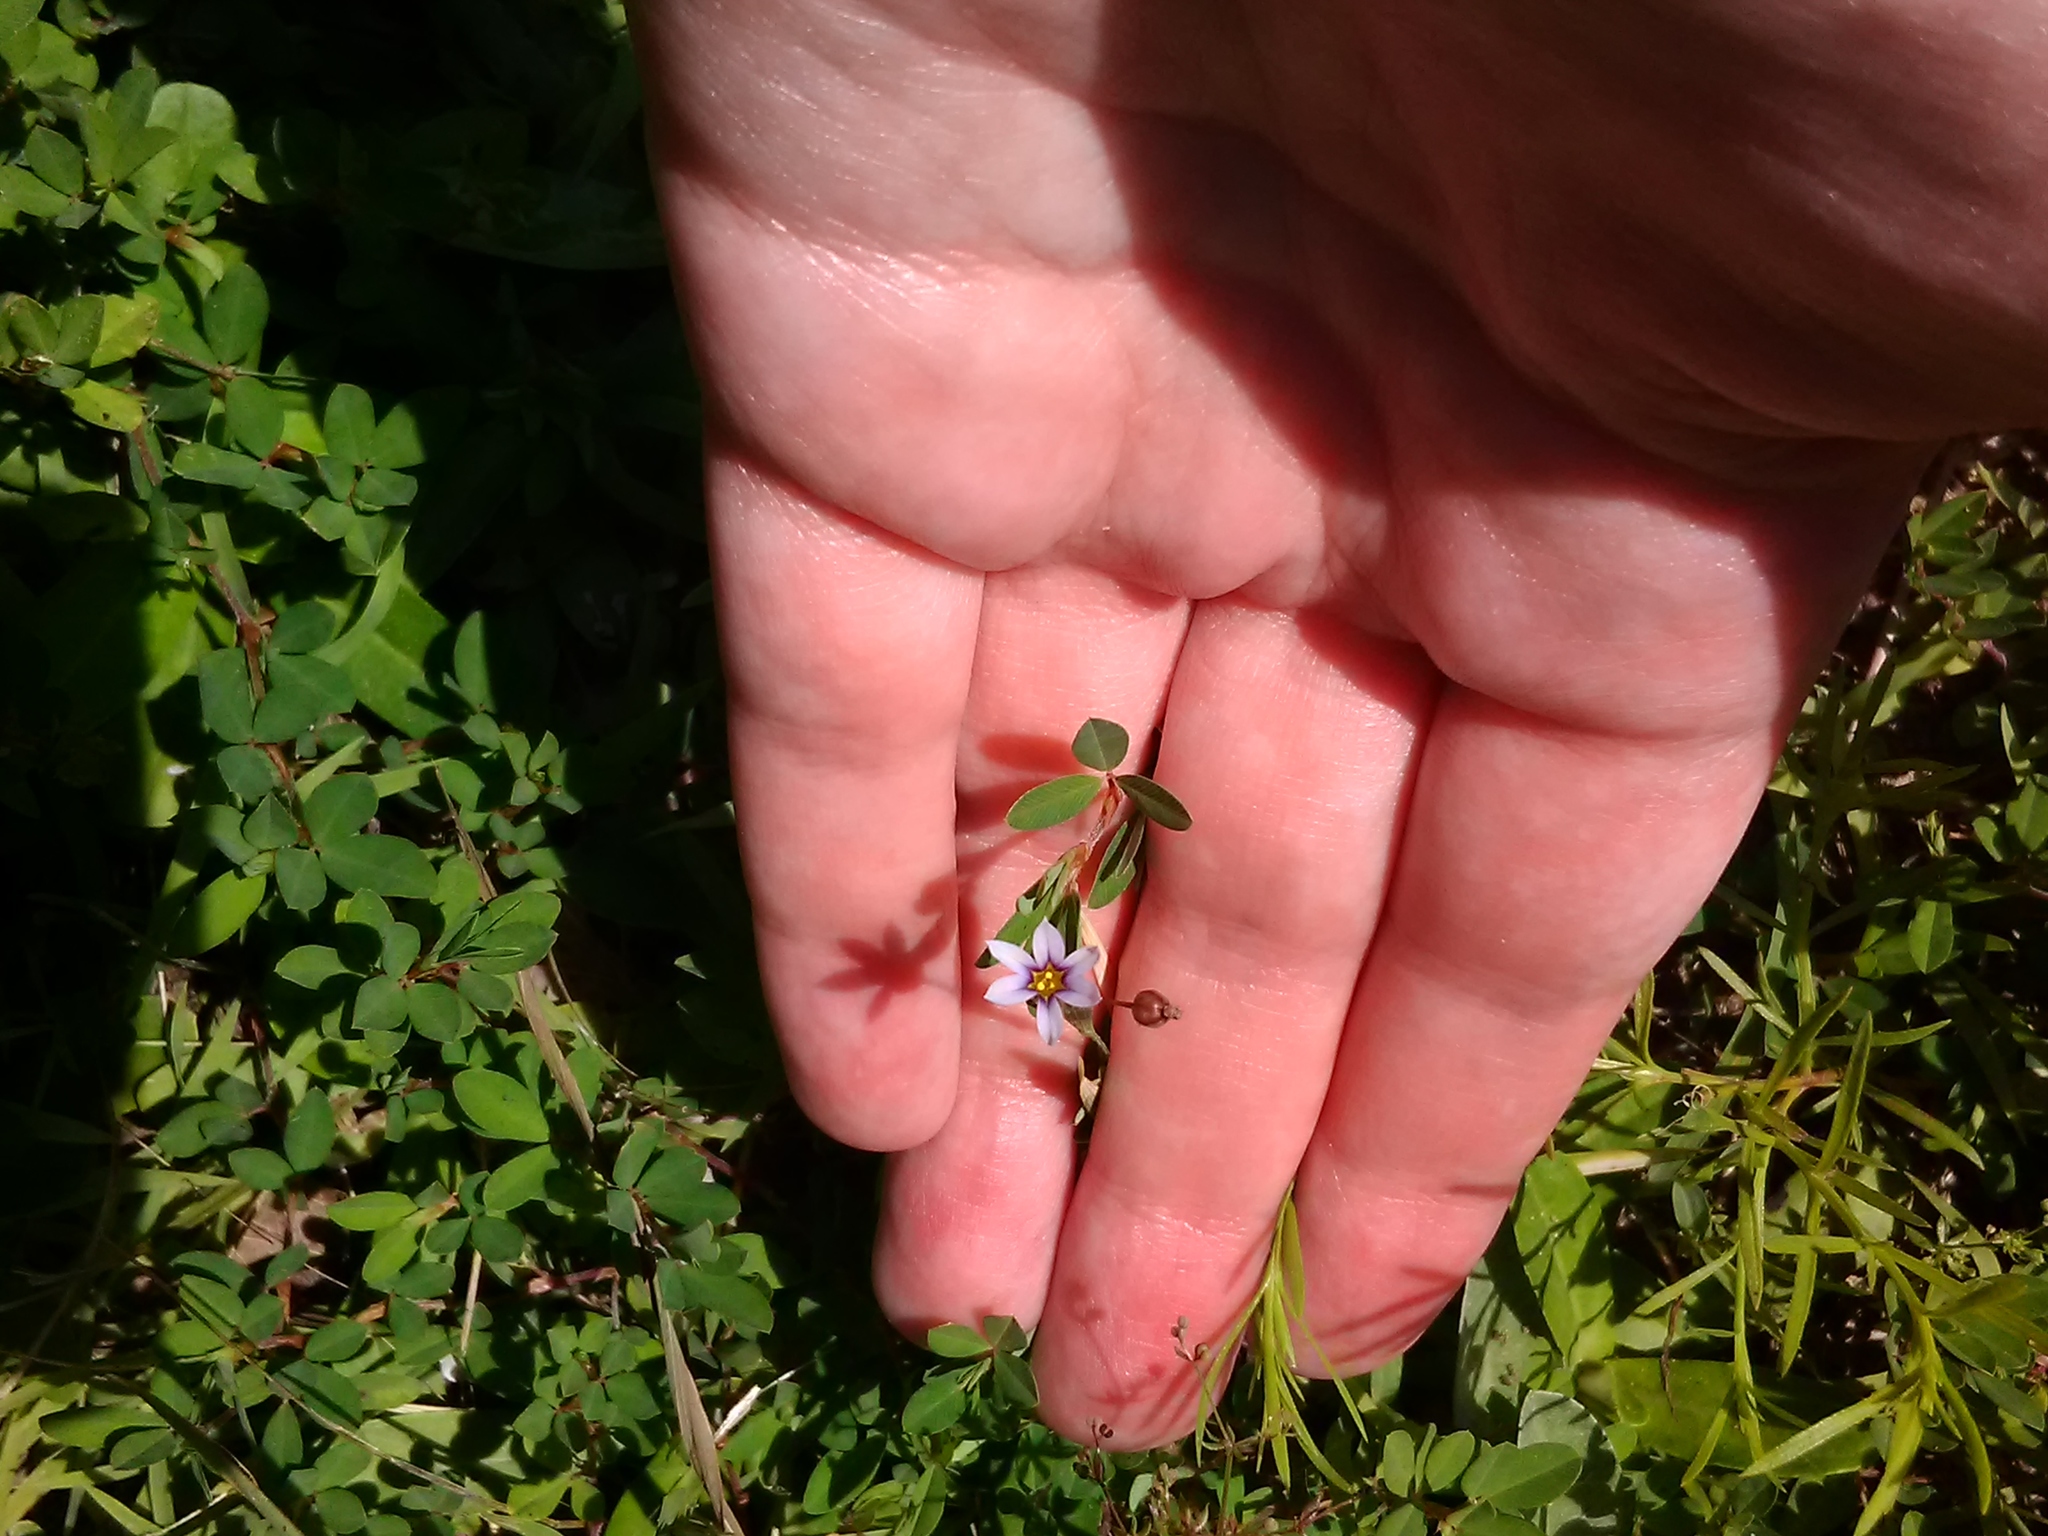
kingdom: Plantae
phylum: Tracheophyta
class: Liliopsida
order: Asparagales
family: Iridaceae
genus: Sisyrinchium
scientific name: Sisyrinchium micranthum
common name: Bermuda pigroot
